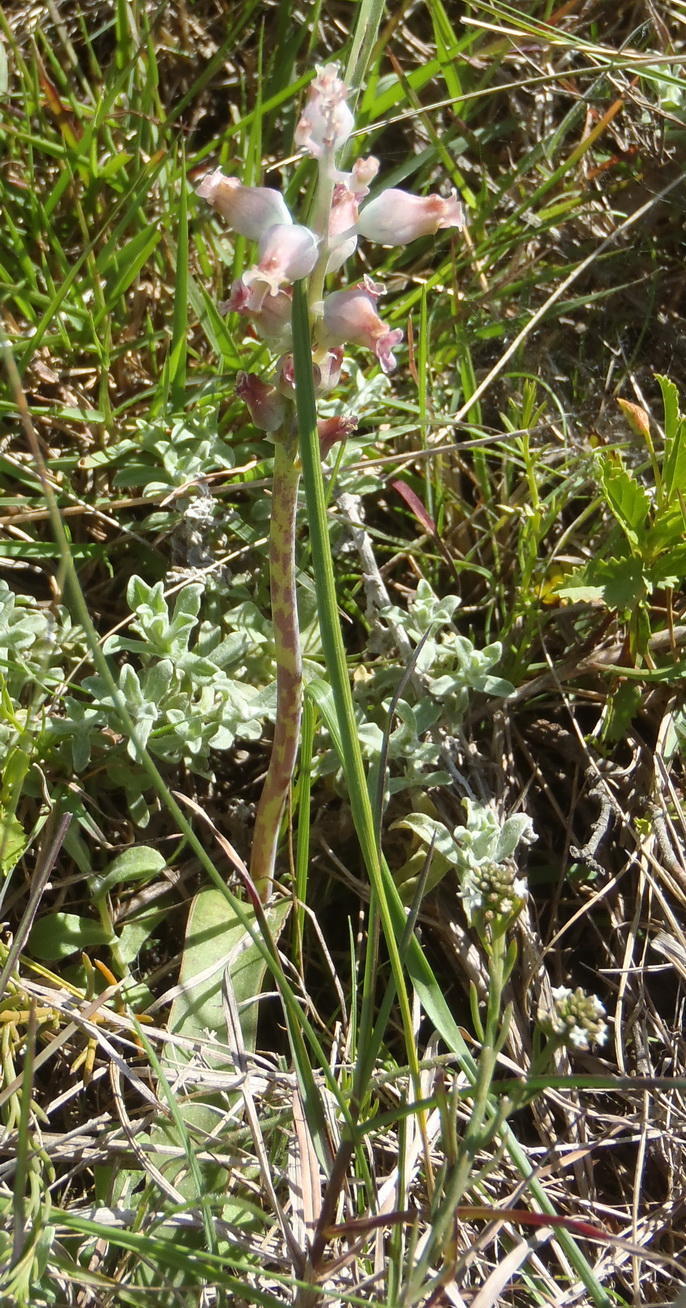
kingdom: Plantae
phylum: Tracheophyta
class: Liliopsida
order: Asparagales
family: Asparagaceae
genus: Lachenalia
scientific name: Lachenalia judithiae
